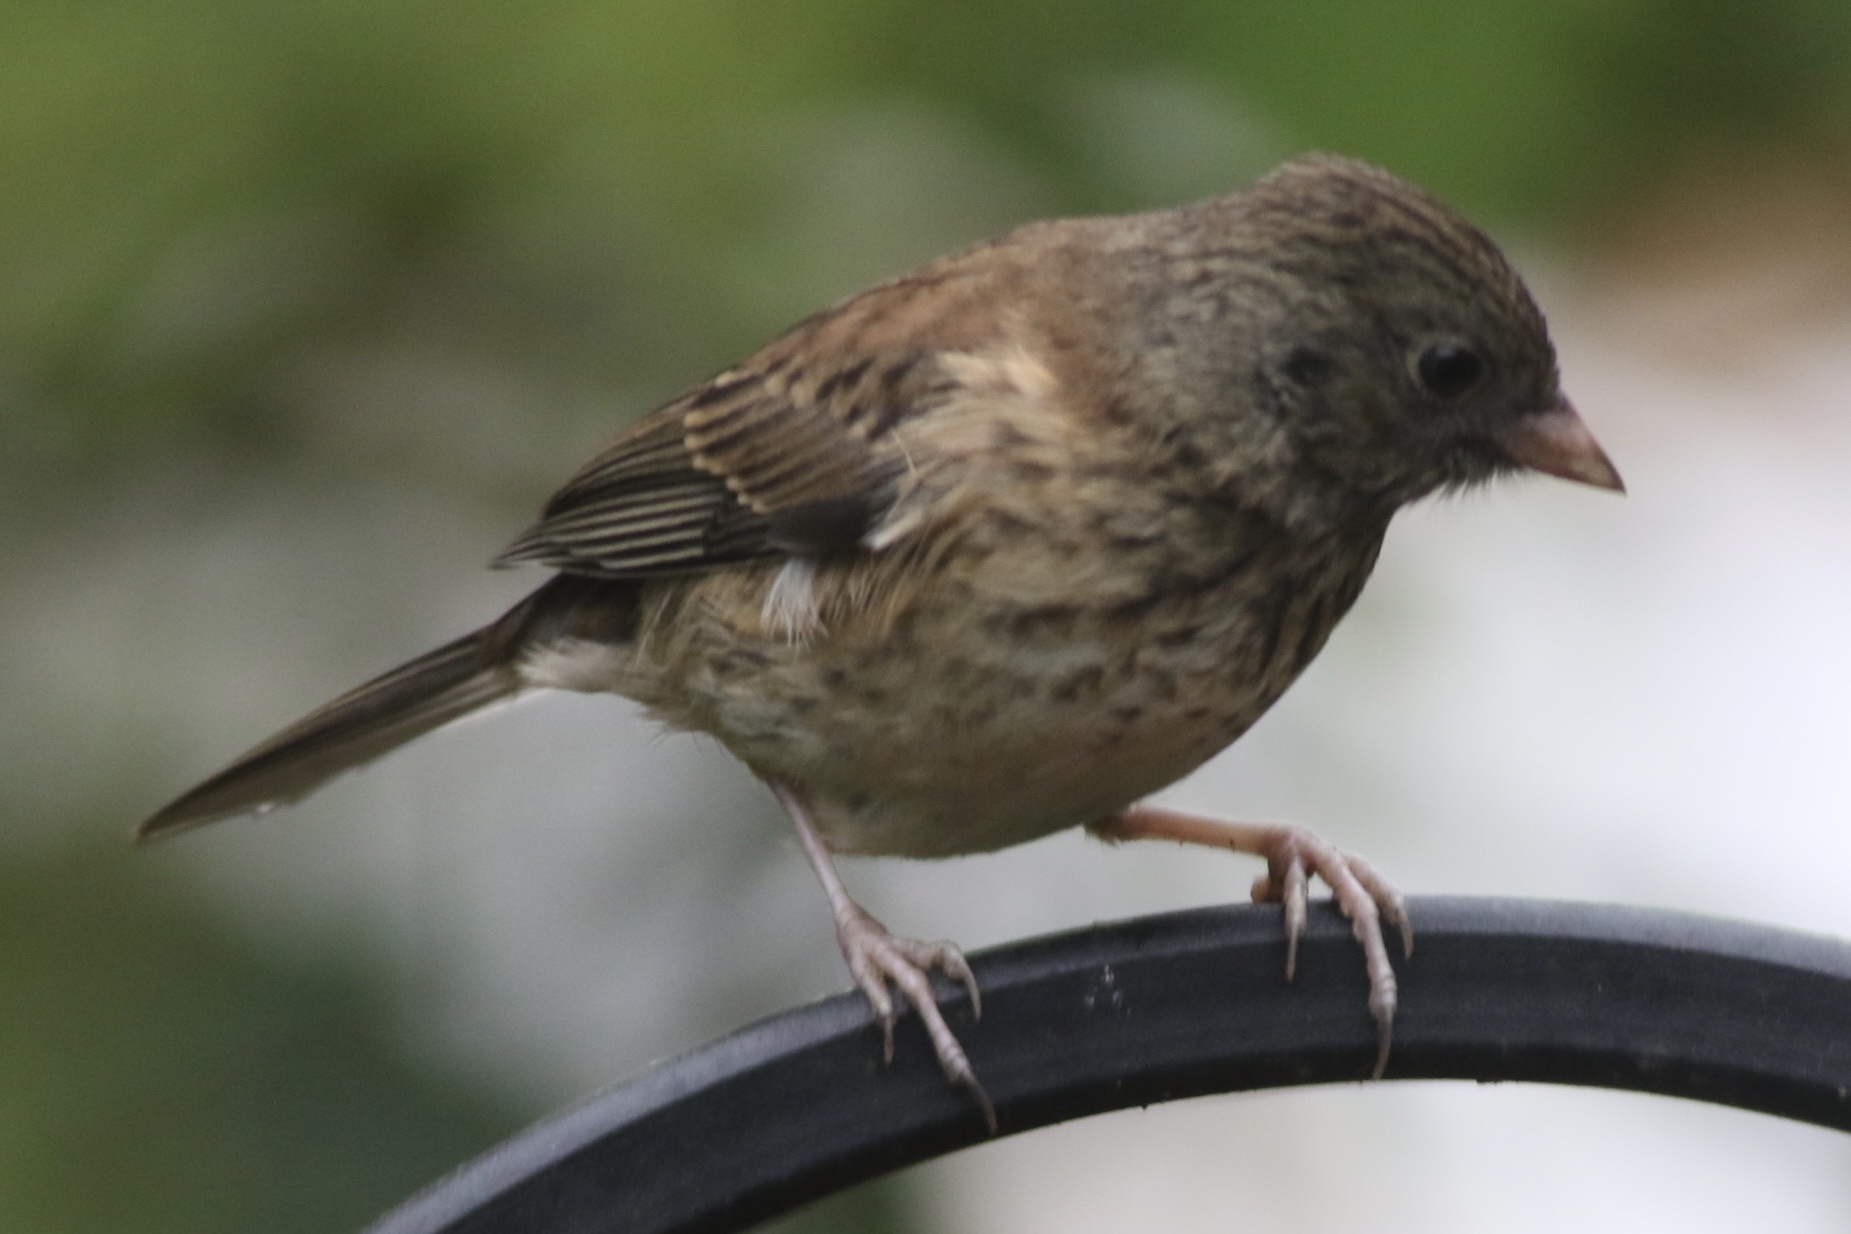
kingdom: Animalia
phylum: Chordata
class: Aves
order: Passeriformes
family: Passerellidae
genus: Junco
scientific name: Junco hyemalis
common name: Dark-eyed junco
